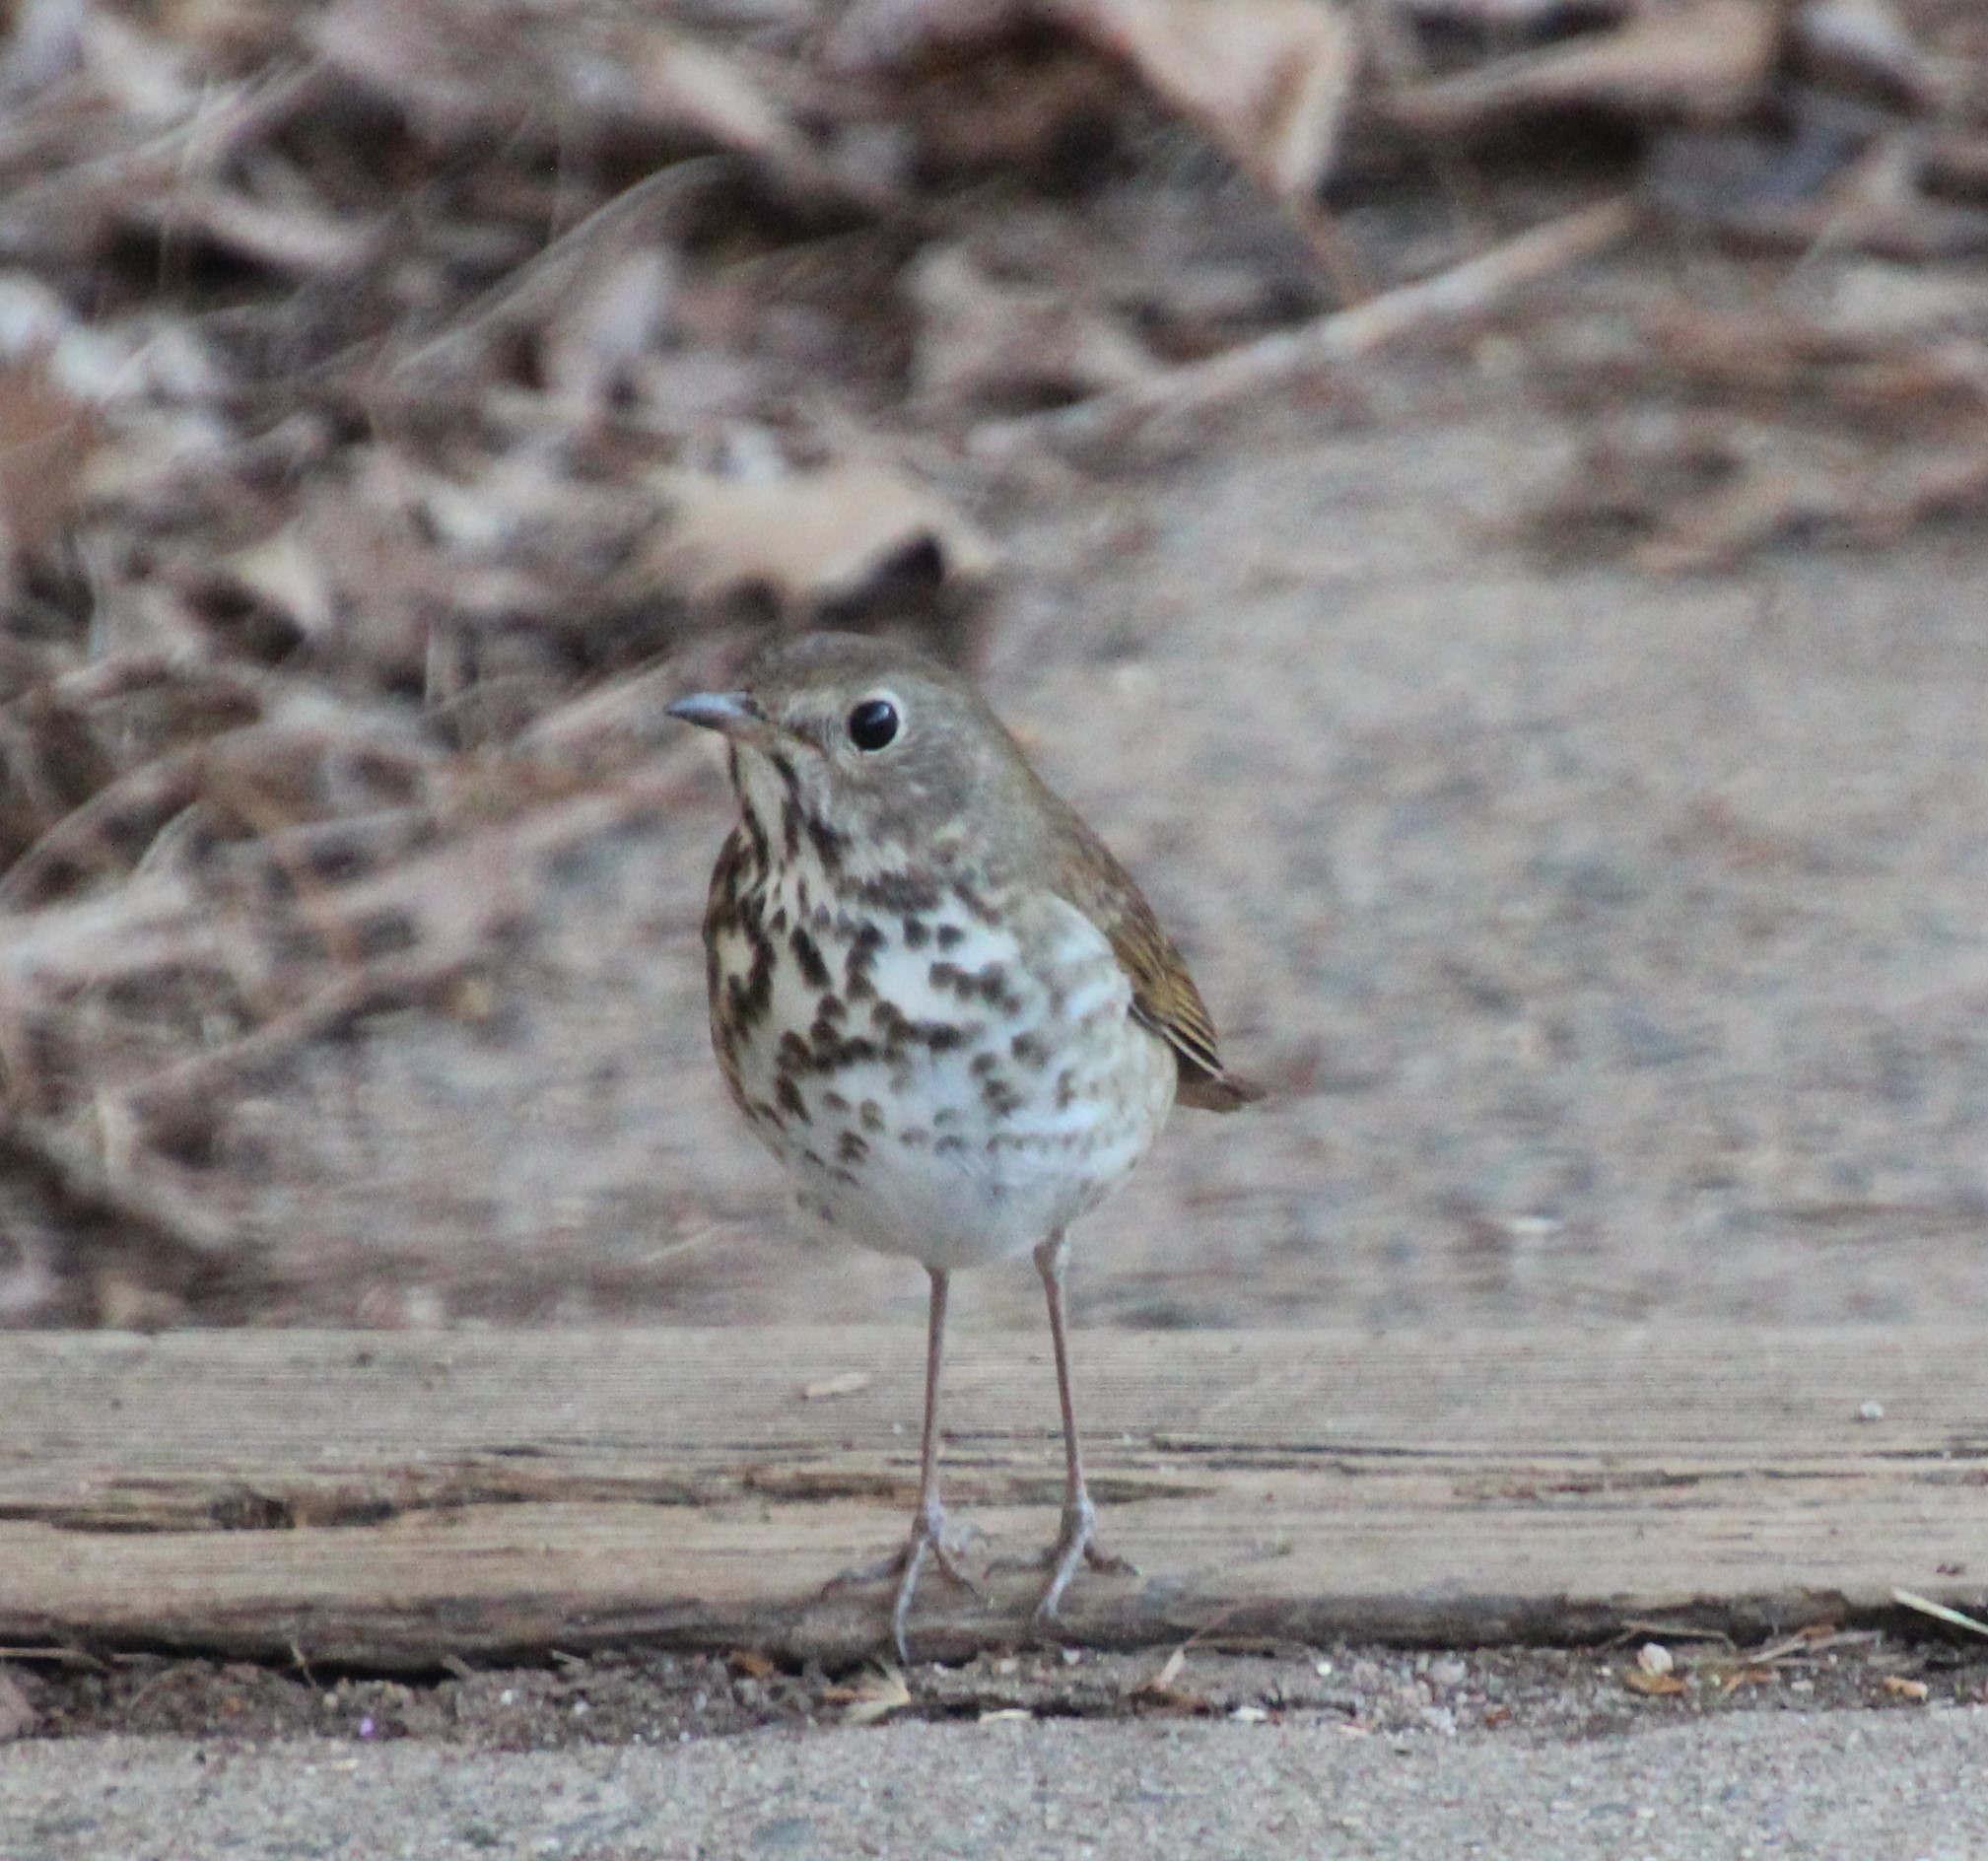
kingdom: Animalia
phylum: Chordata
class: Aves
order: Passeriformes
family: Turdidae
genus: Catharus
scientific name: Catharus guttatus
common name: Hermit thrush
